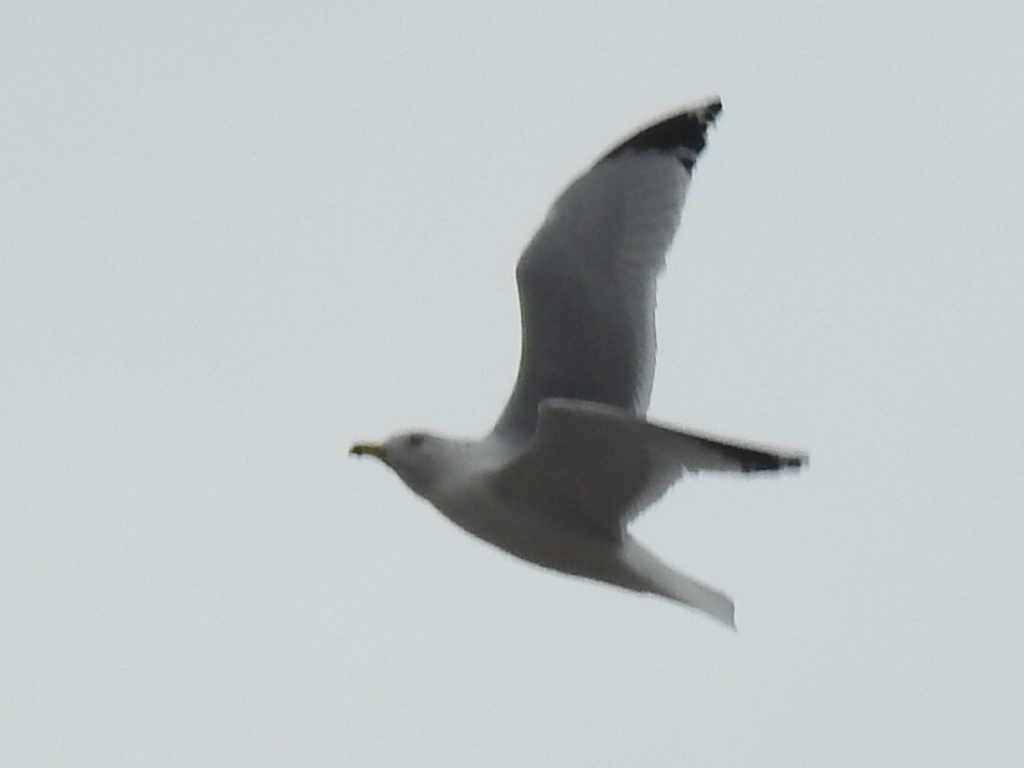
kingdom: Animalia
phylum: Chordata
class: Aves
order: Charadriiformes
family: Laridae
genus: Larus
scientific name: Larus delawarensis
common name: Ring-billed gull
